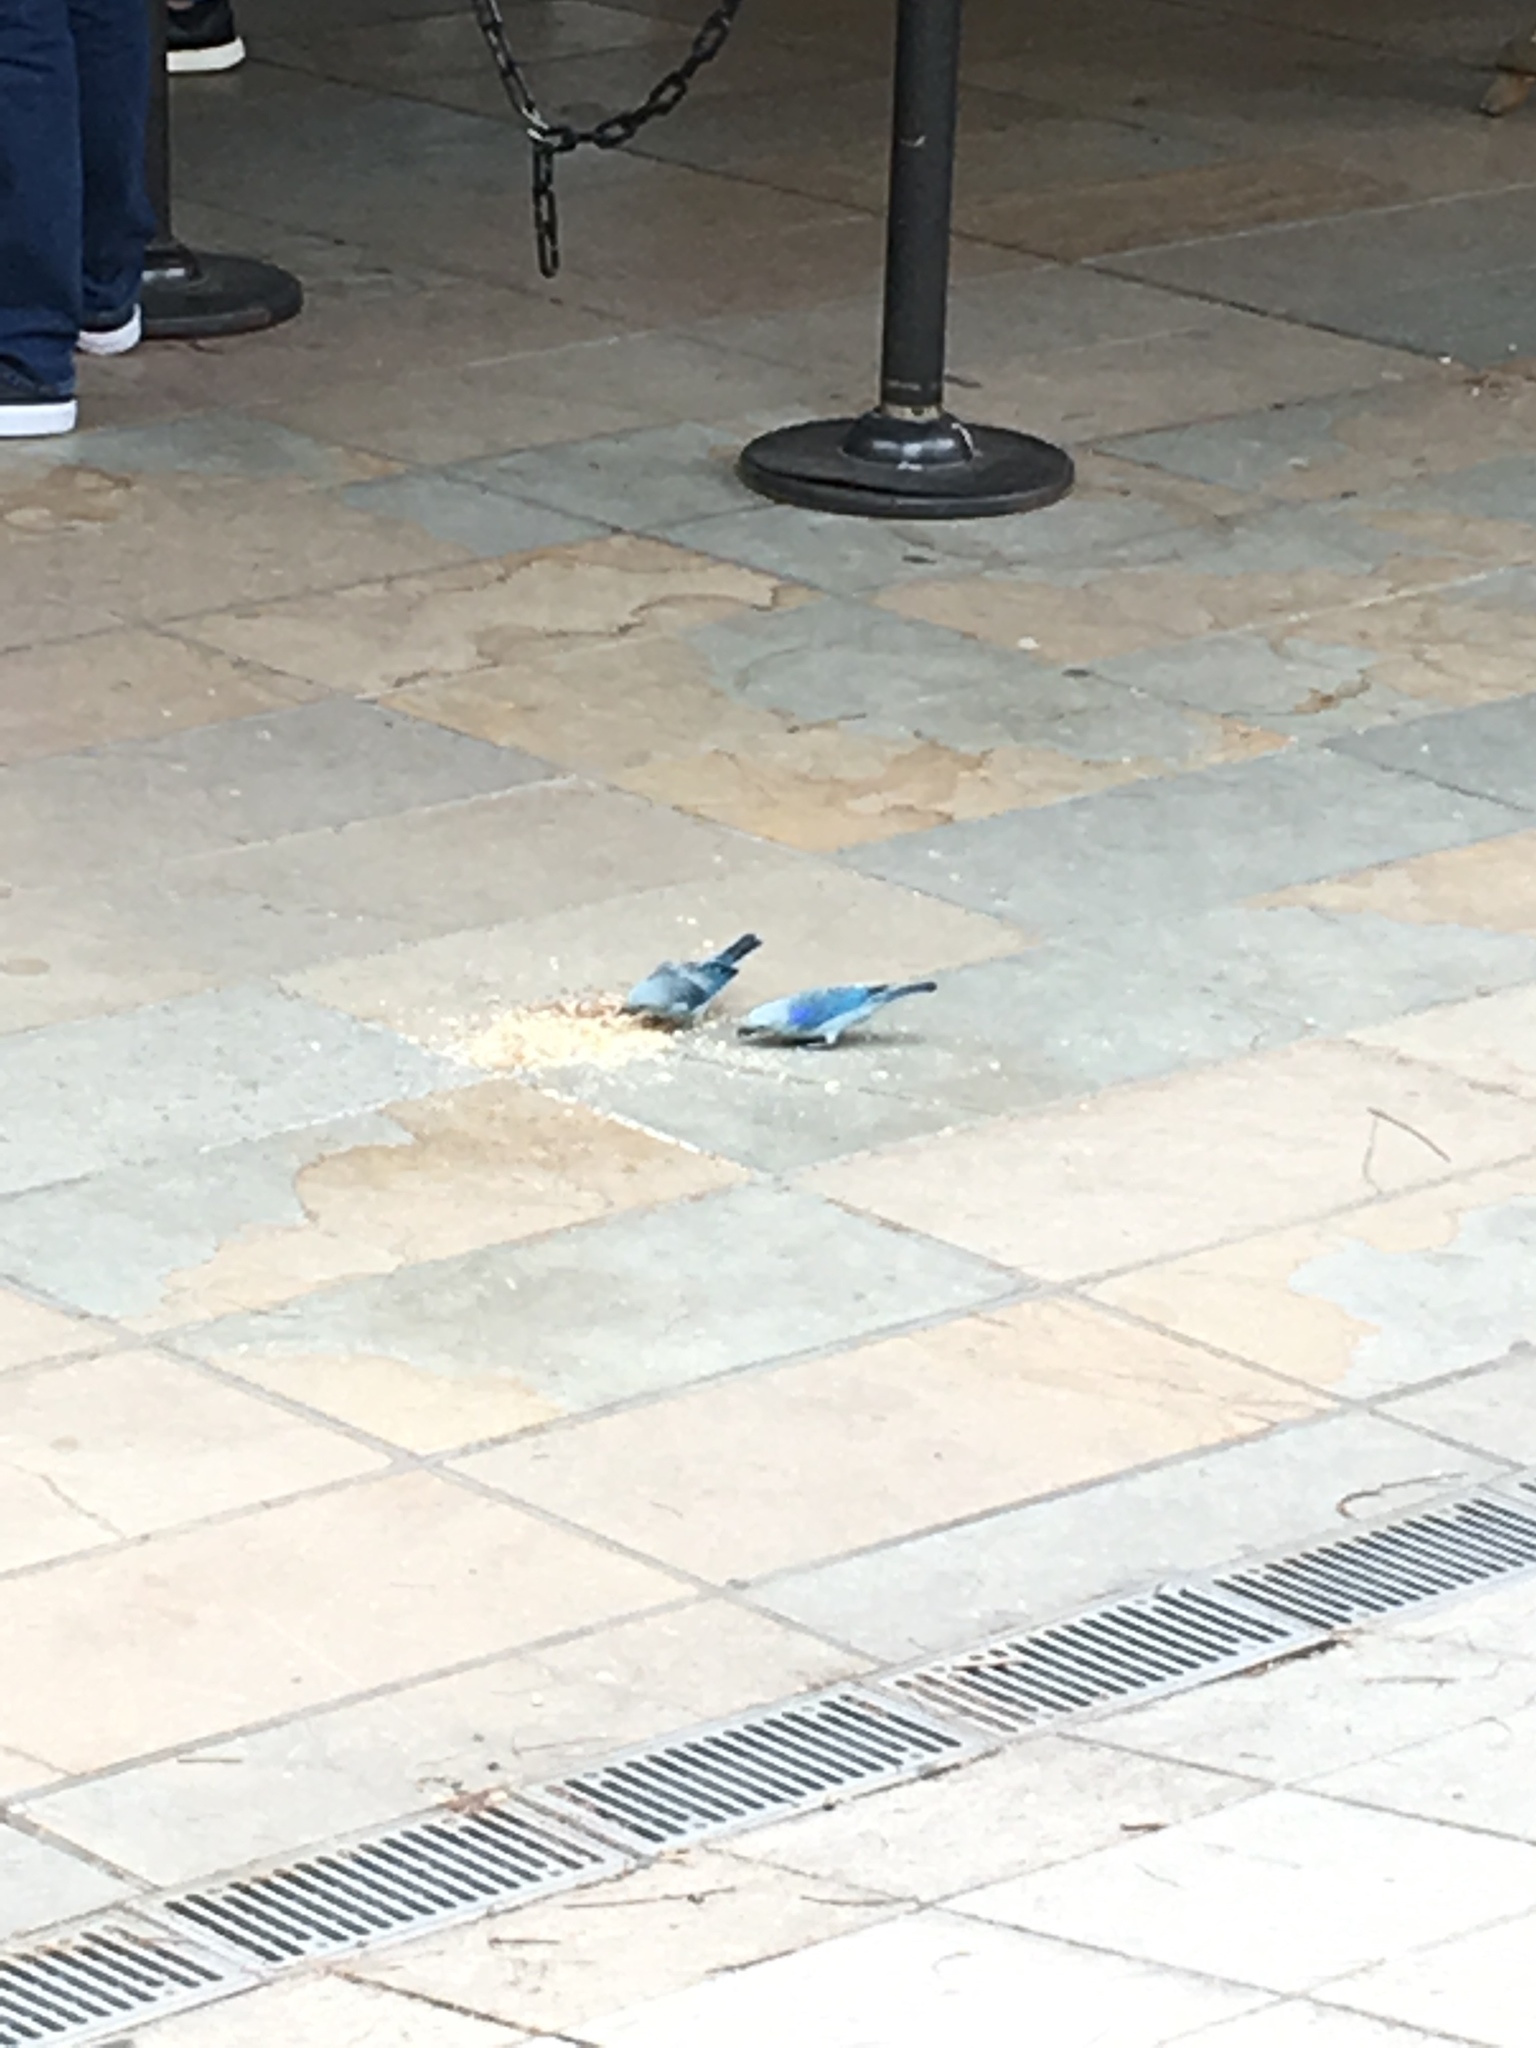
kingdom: Animalia
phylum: Chordata
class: Aves
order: Passeriformes
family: Thraupidae
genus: Thraupis
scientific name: Thraupis episcopus
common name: Blue-grey tanager
